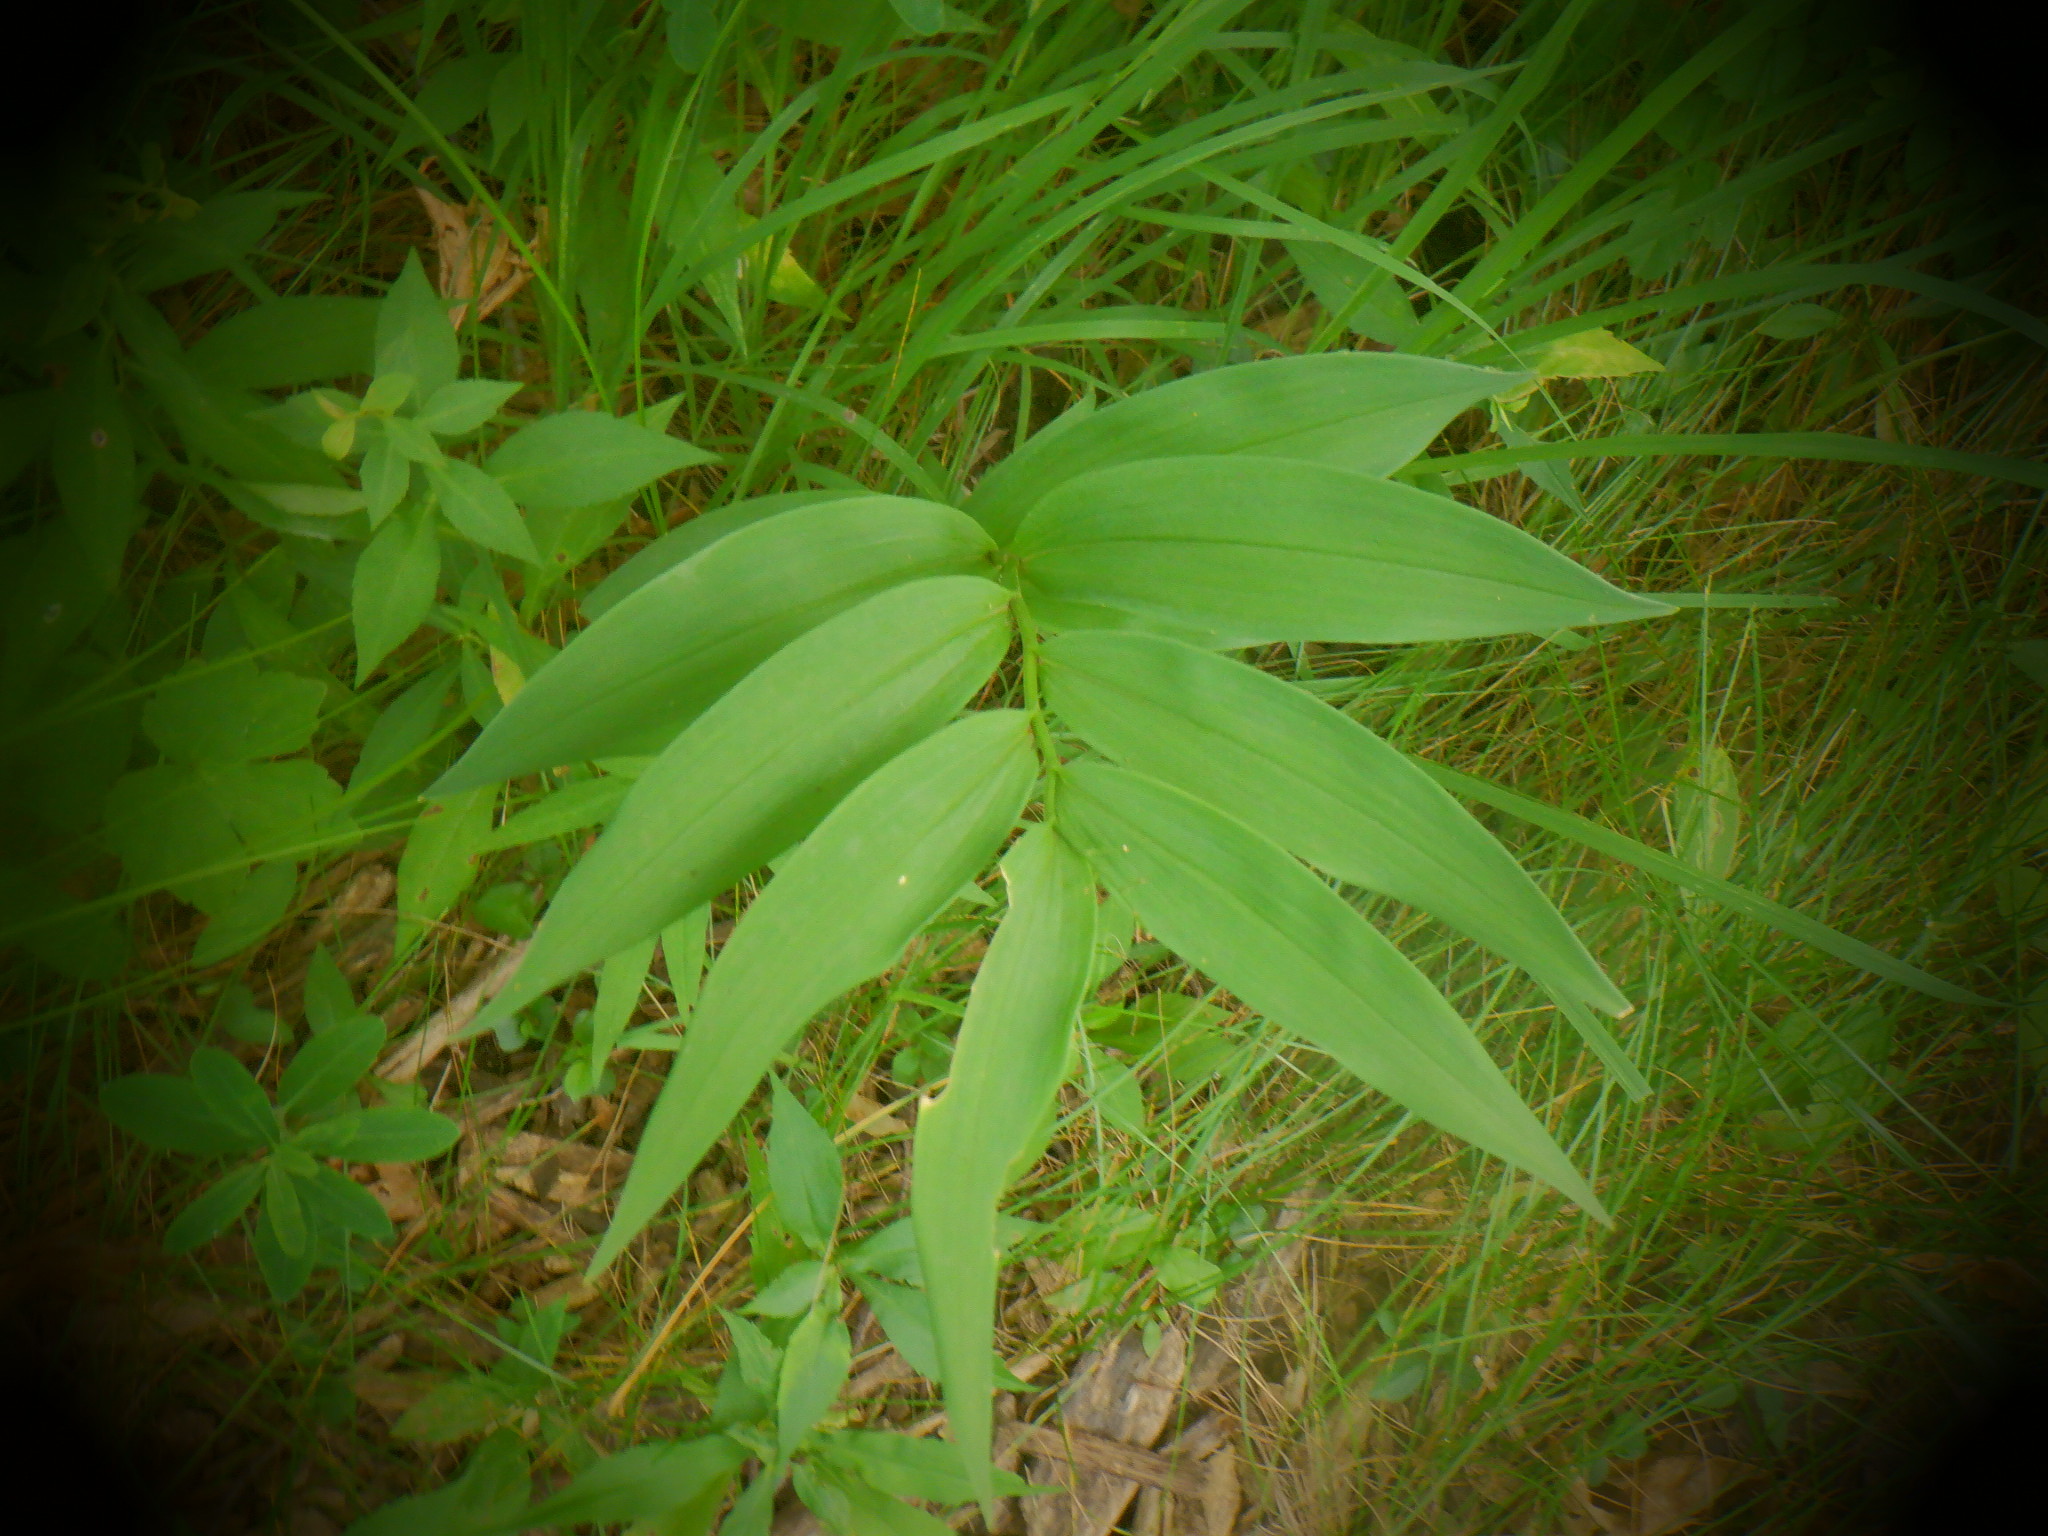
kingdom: Plantae
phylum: Tracheophyta
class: Liliopsida
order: Asparagales
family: Asparagaceae
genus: Maianthemum
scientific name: Maianthemum stellatum
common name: Little false solomon's seal
